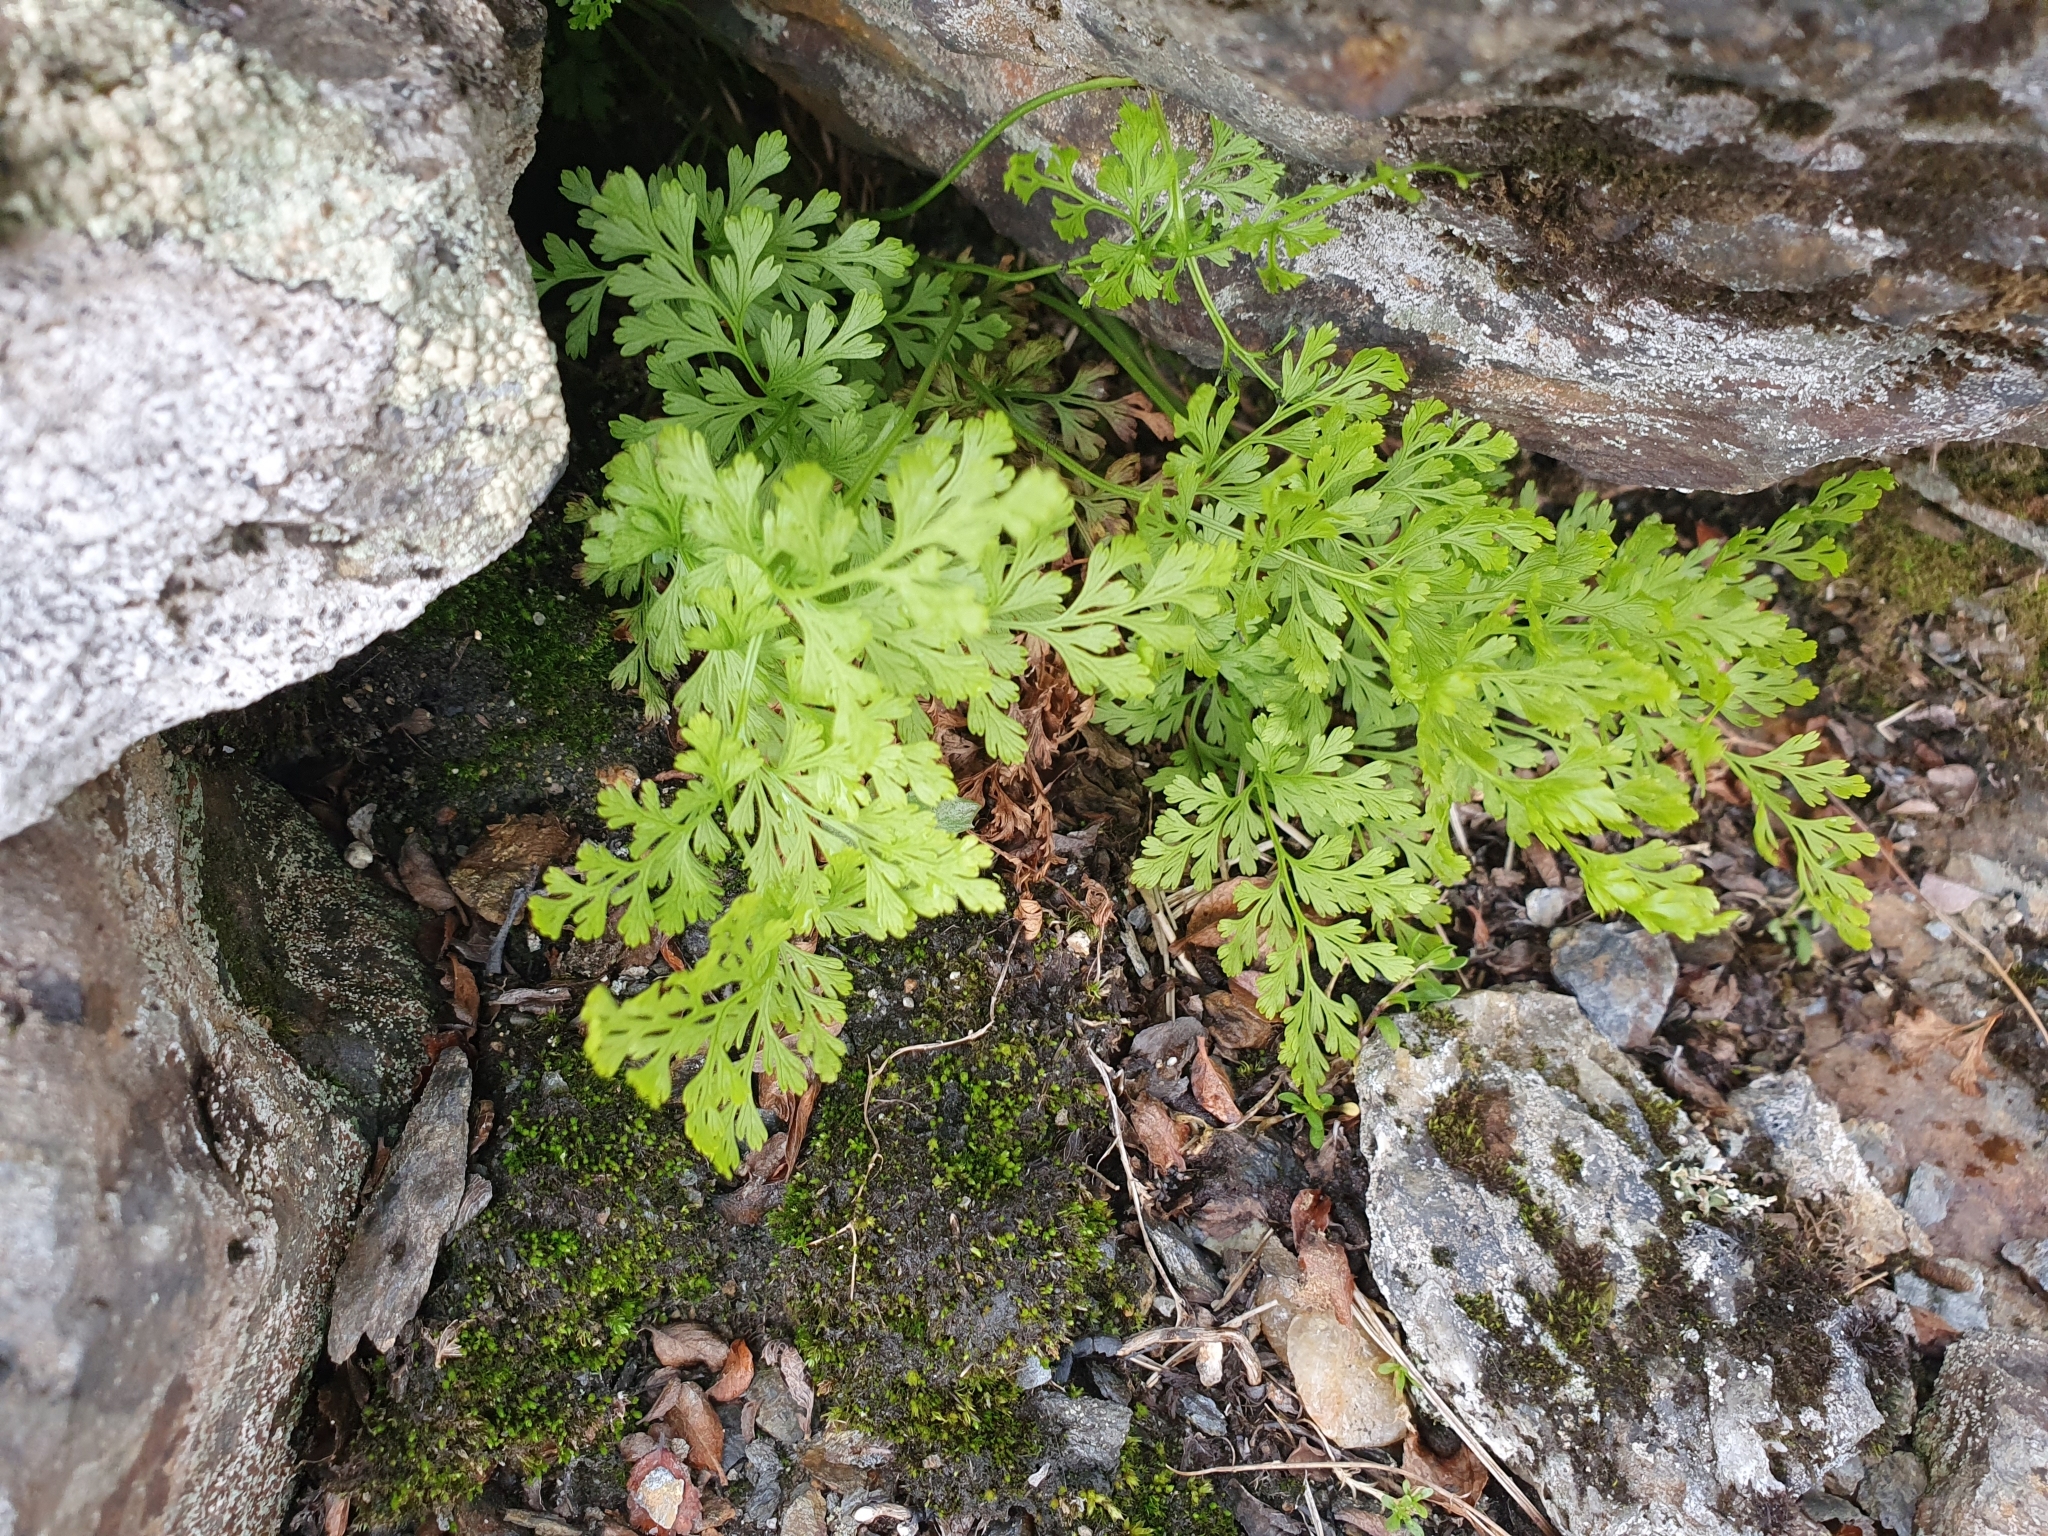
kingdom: Plantae
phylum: Tracheophyta
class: Polypodiopsida
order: Polypodiales
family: Pteridaceae
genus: Cryptogramma
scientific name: Cryptogramma crispa
